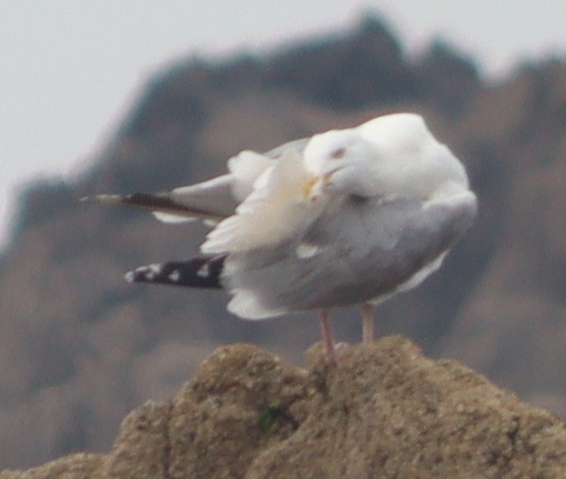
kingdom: Animalia
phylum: Chordata
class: Aves
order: Charadriiformes
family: Laridae
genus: Larus
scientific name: Larus argentatus
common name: Herring gull
